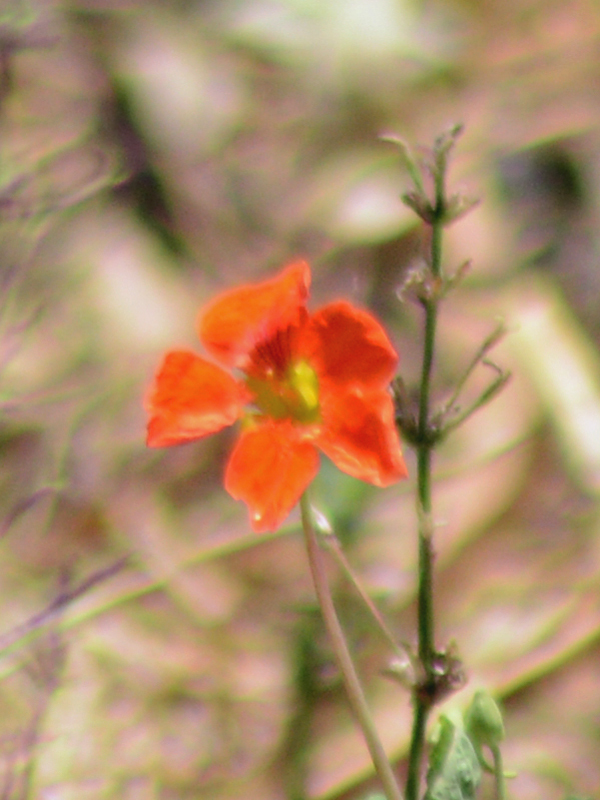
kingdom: Plantae
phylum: Tracheophyta
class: Magnoliopsida
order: Brassicales
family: Tropaeolaceae
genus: Tropaeolum
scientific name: Tropaeolum majus
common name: Nasturtium
